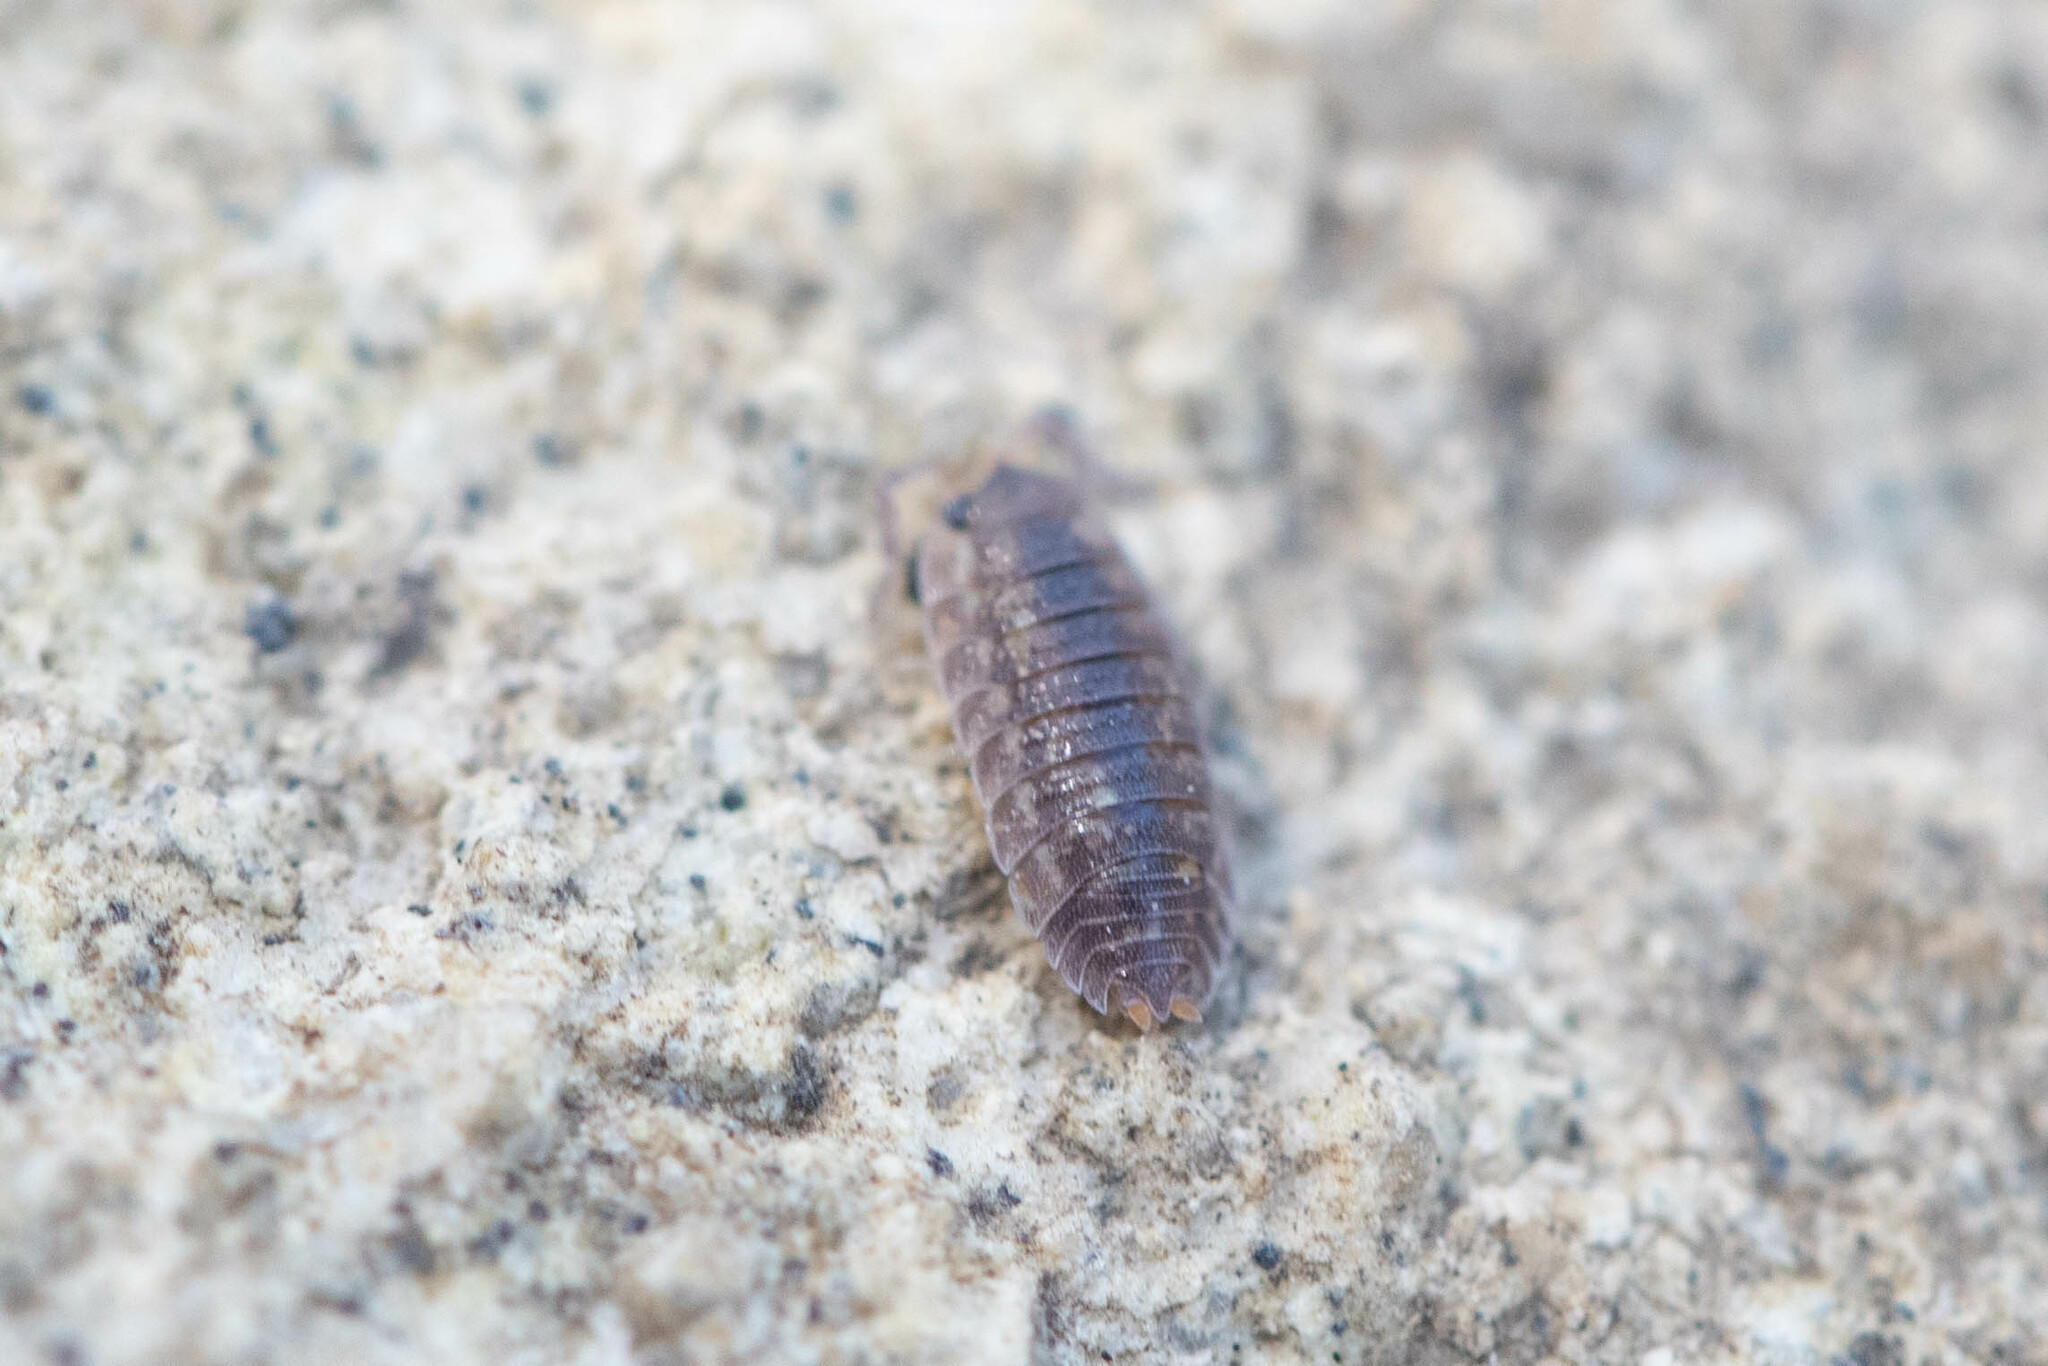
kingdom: Animalia
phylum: Arthropoda
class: Malacostraca
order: Isopoda
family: Porcellionidae
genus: Porcellio
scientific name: Porcellio scaber
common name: Common rough woodlouse
